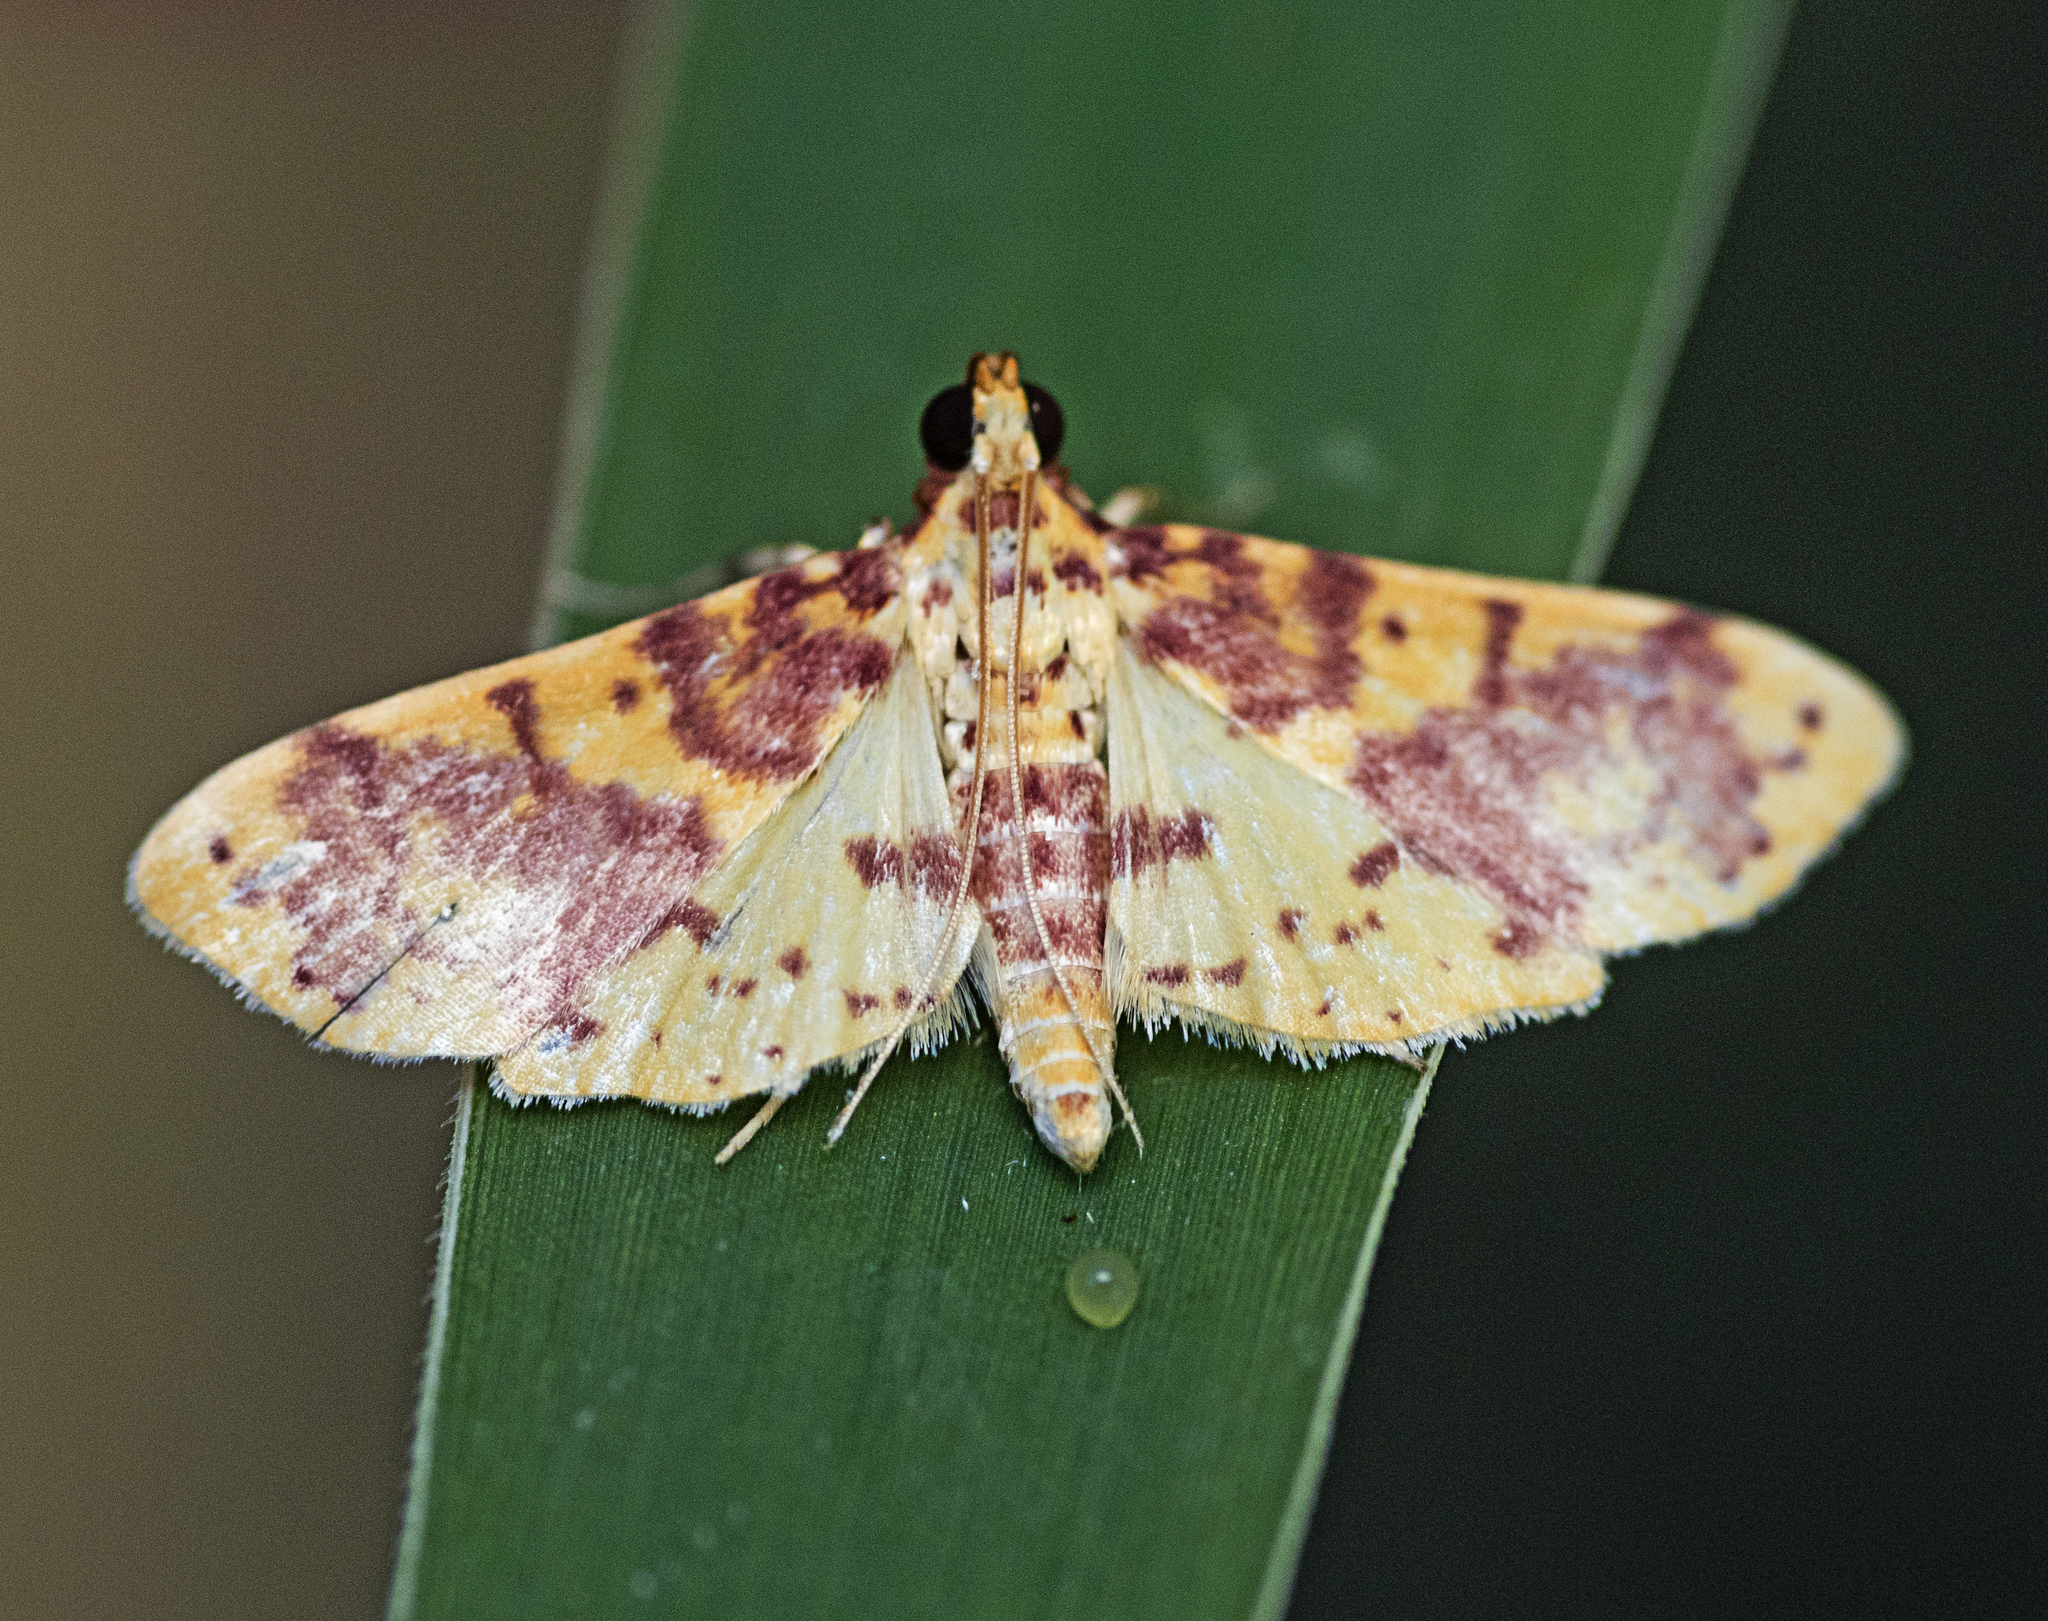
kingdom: Animalia
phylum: Arthropoda
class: Insecta
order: Lepidoptera
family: Crambidae
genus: Conogethes
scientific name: Conogethes haemactalis
